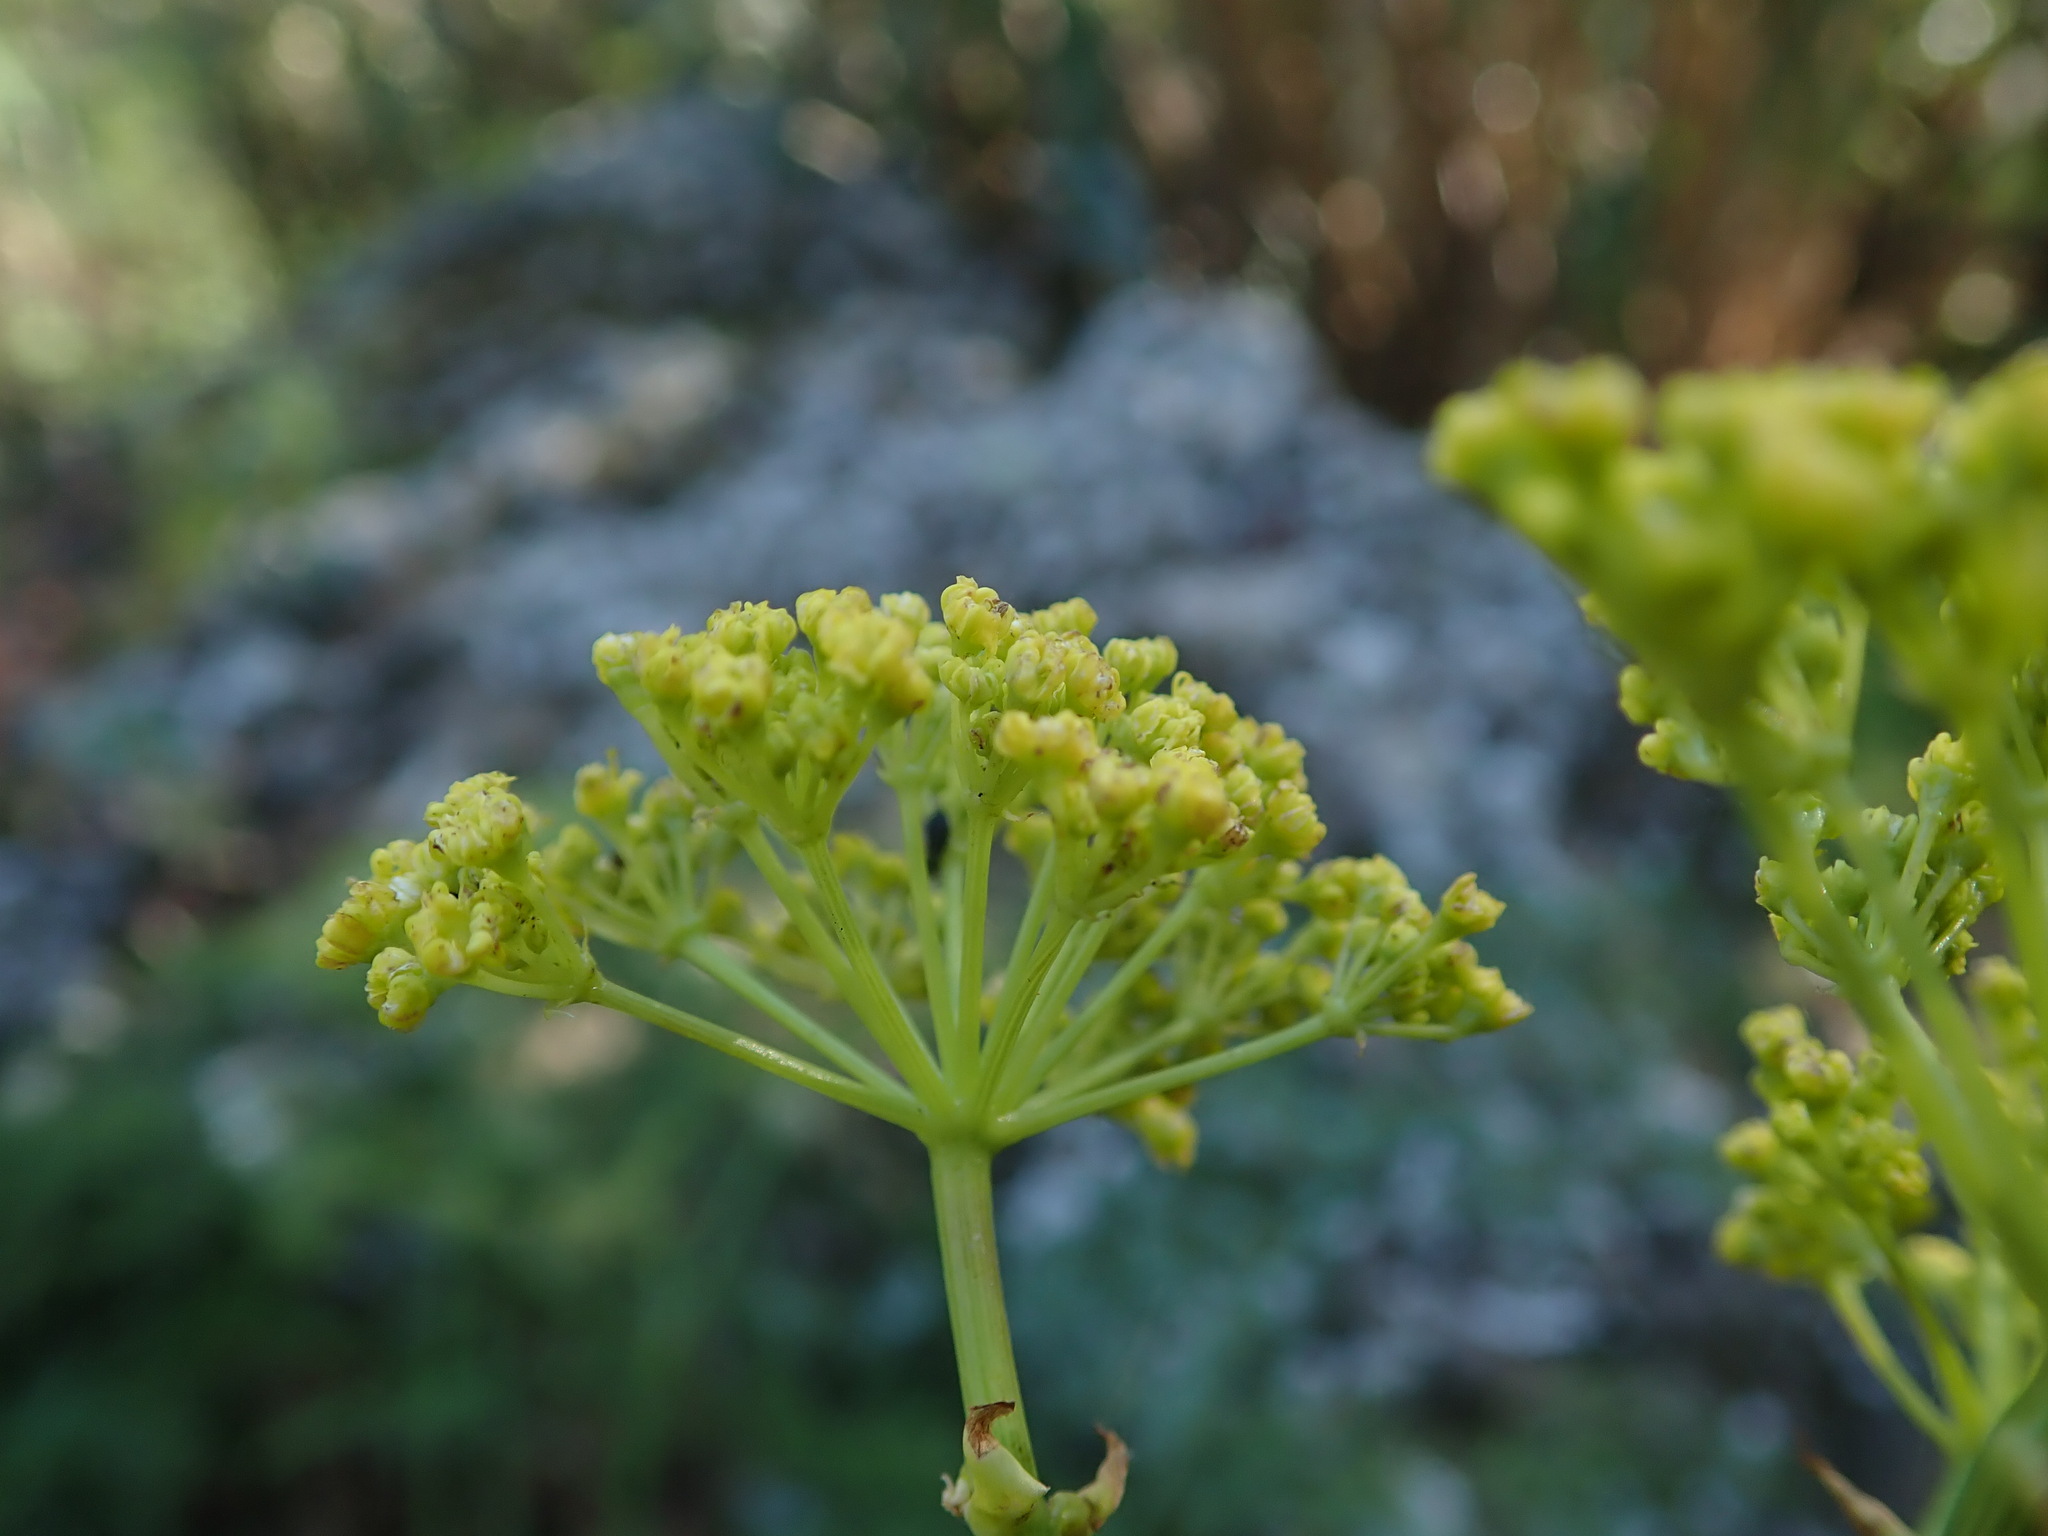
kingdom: Plantae
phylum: Tracheophyta
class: Magnoliopsida
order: Apiales
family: Apiaceae
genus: Ferula
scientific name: Ferula communis
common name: Giant fennel
